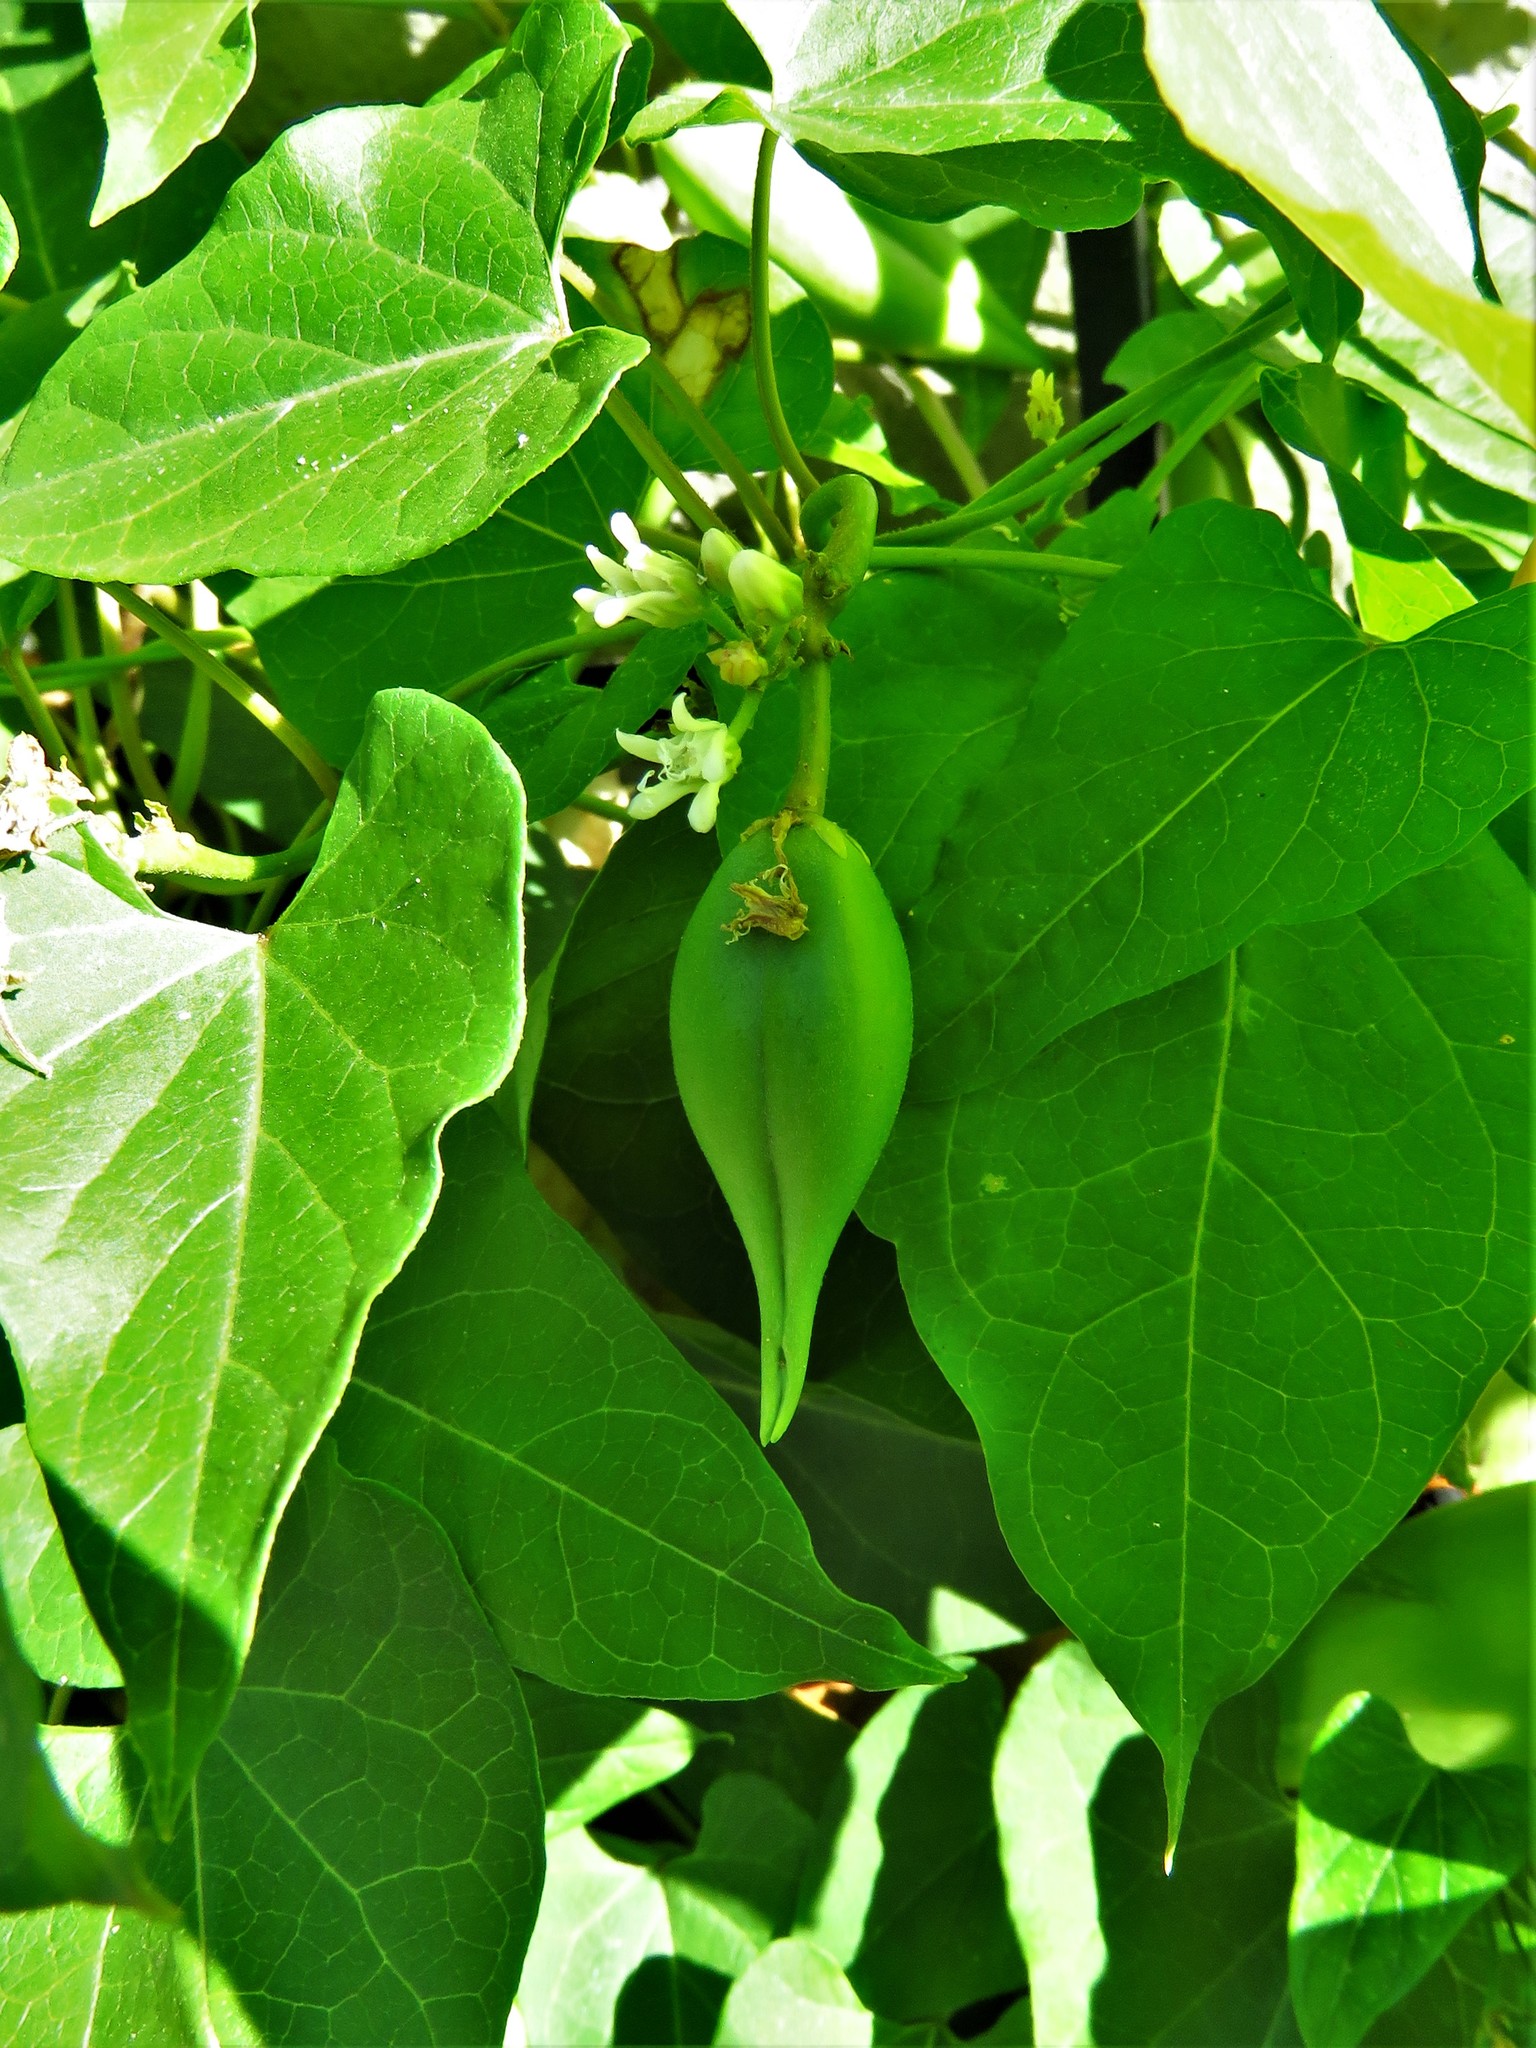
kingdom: Plantae
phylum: Tracheophyta
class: Magnoliopsida
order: Gentianales
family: Apocynaceae
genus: Cynanchum
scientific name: Cynanchum laeve
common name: Sandvine
